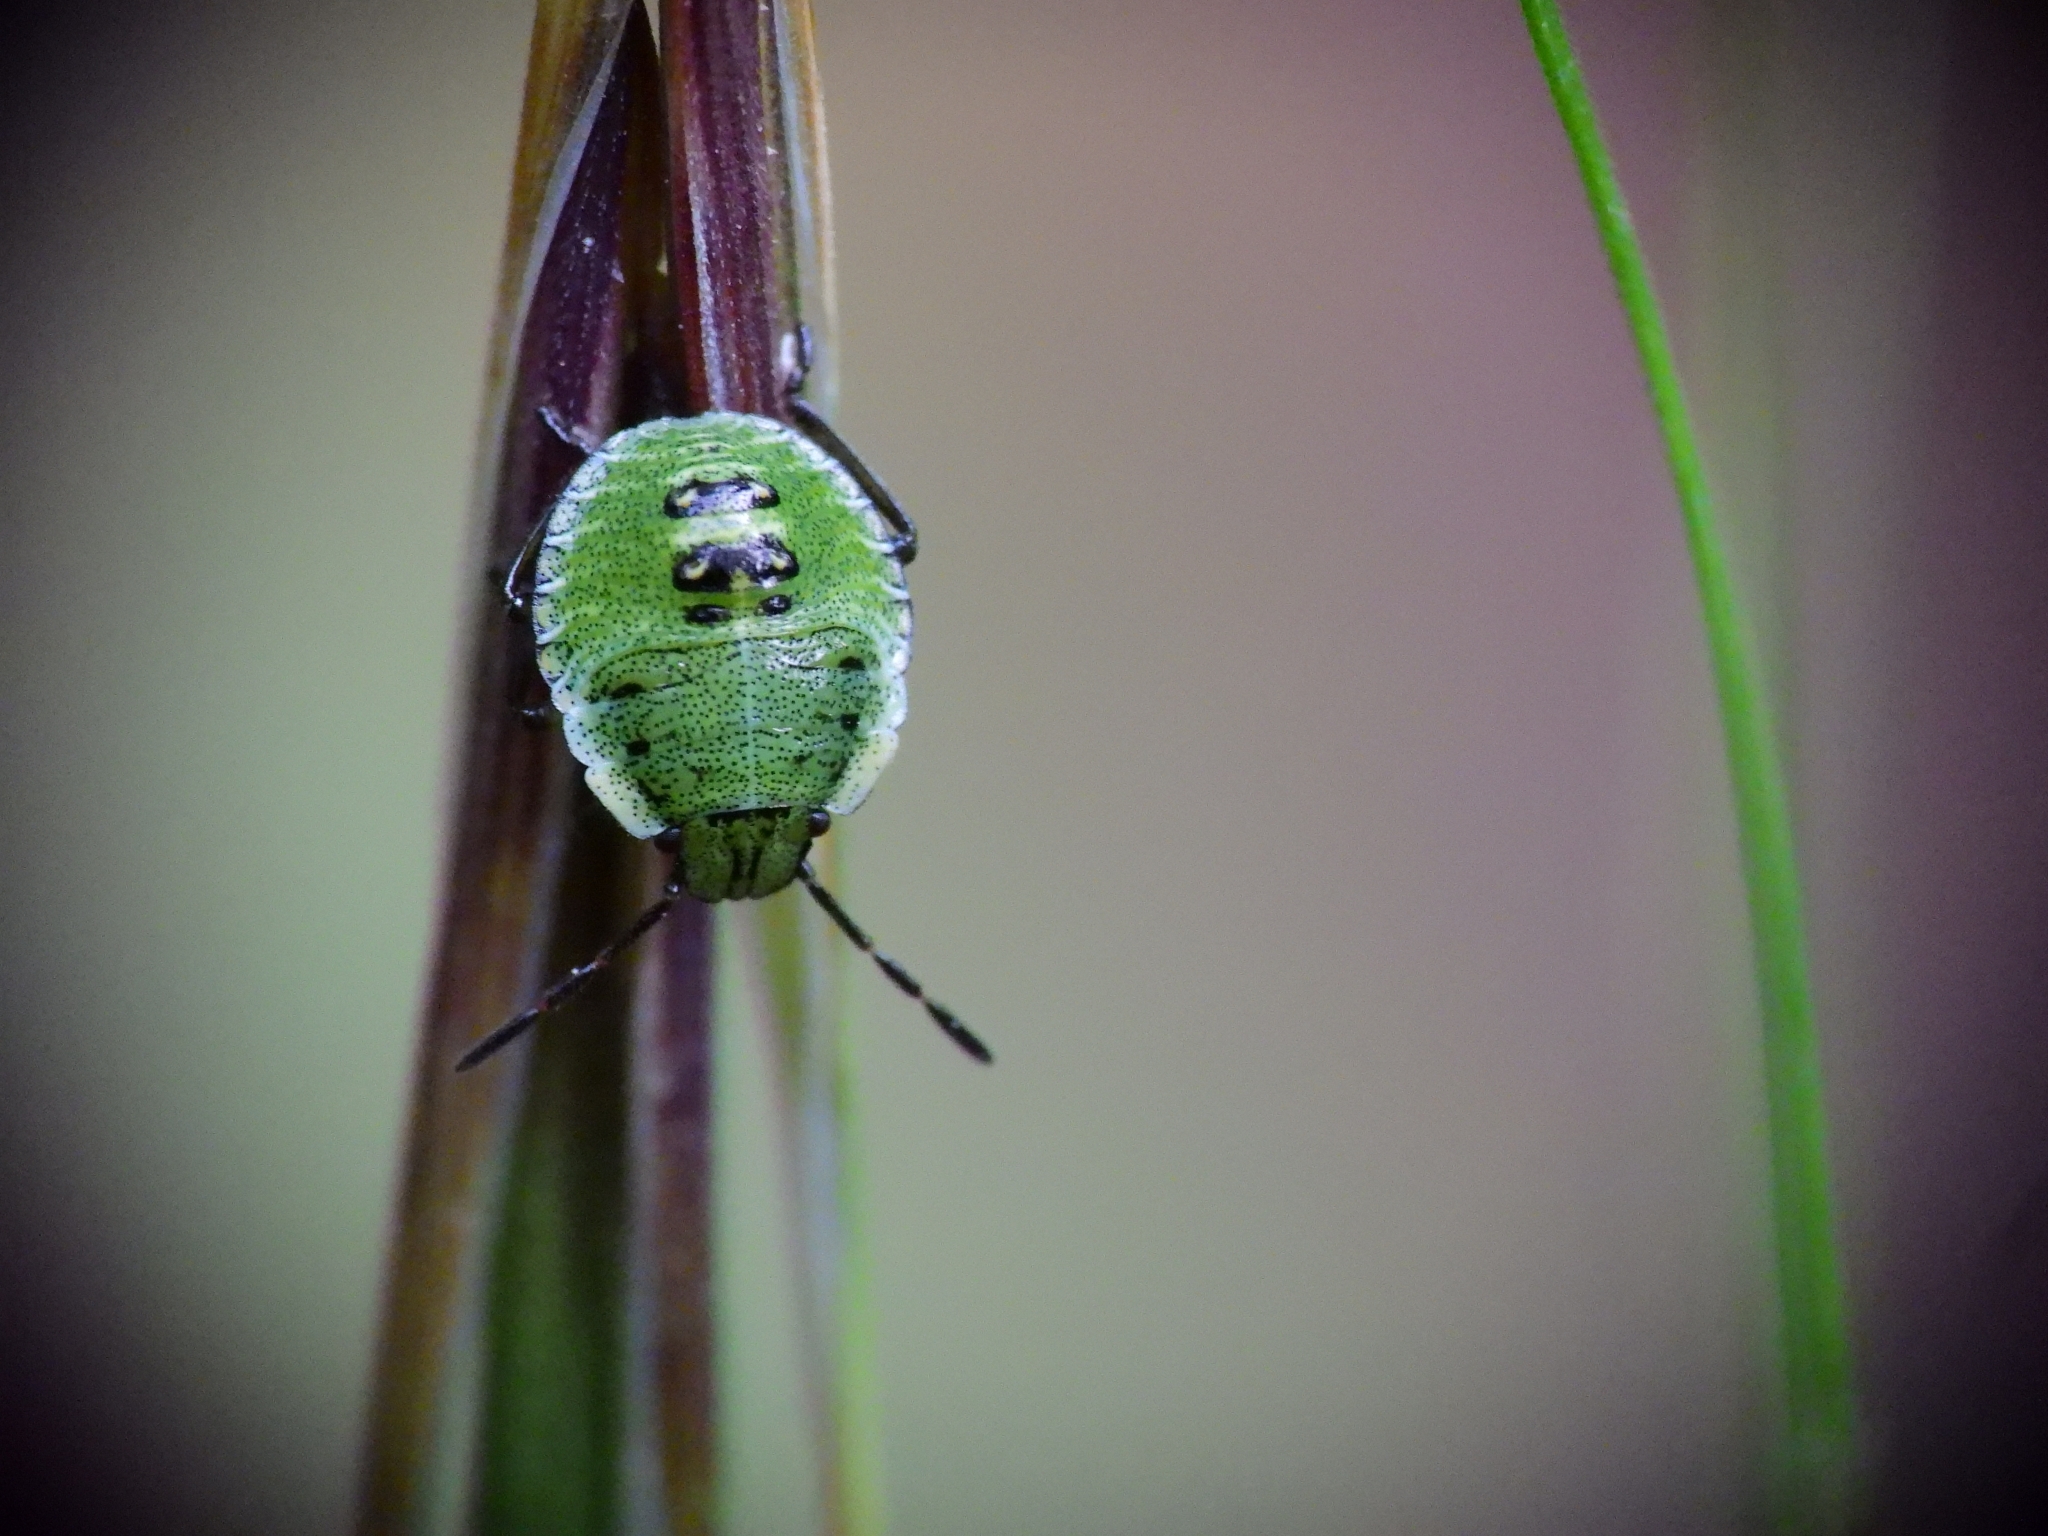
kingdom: Animalia
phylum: Arthropoda
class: Insecta
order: Hemiptera
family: Pentatomidae
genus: Palomena
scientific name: Palomena prasina
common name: Green shieldbug
